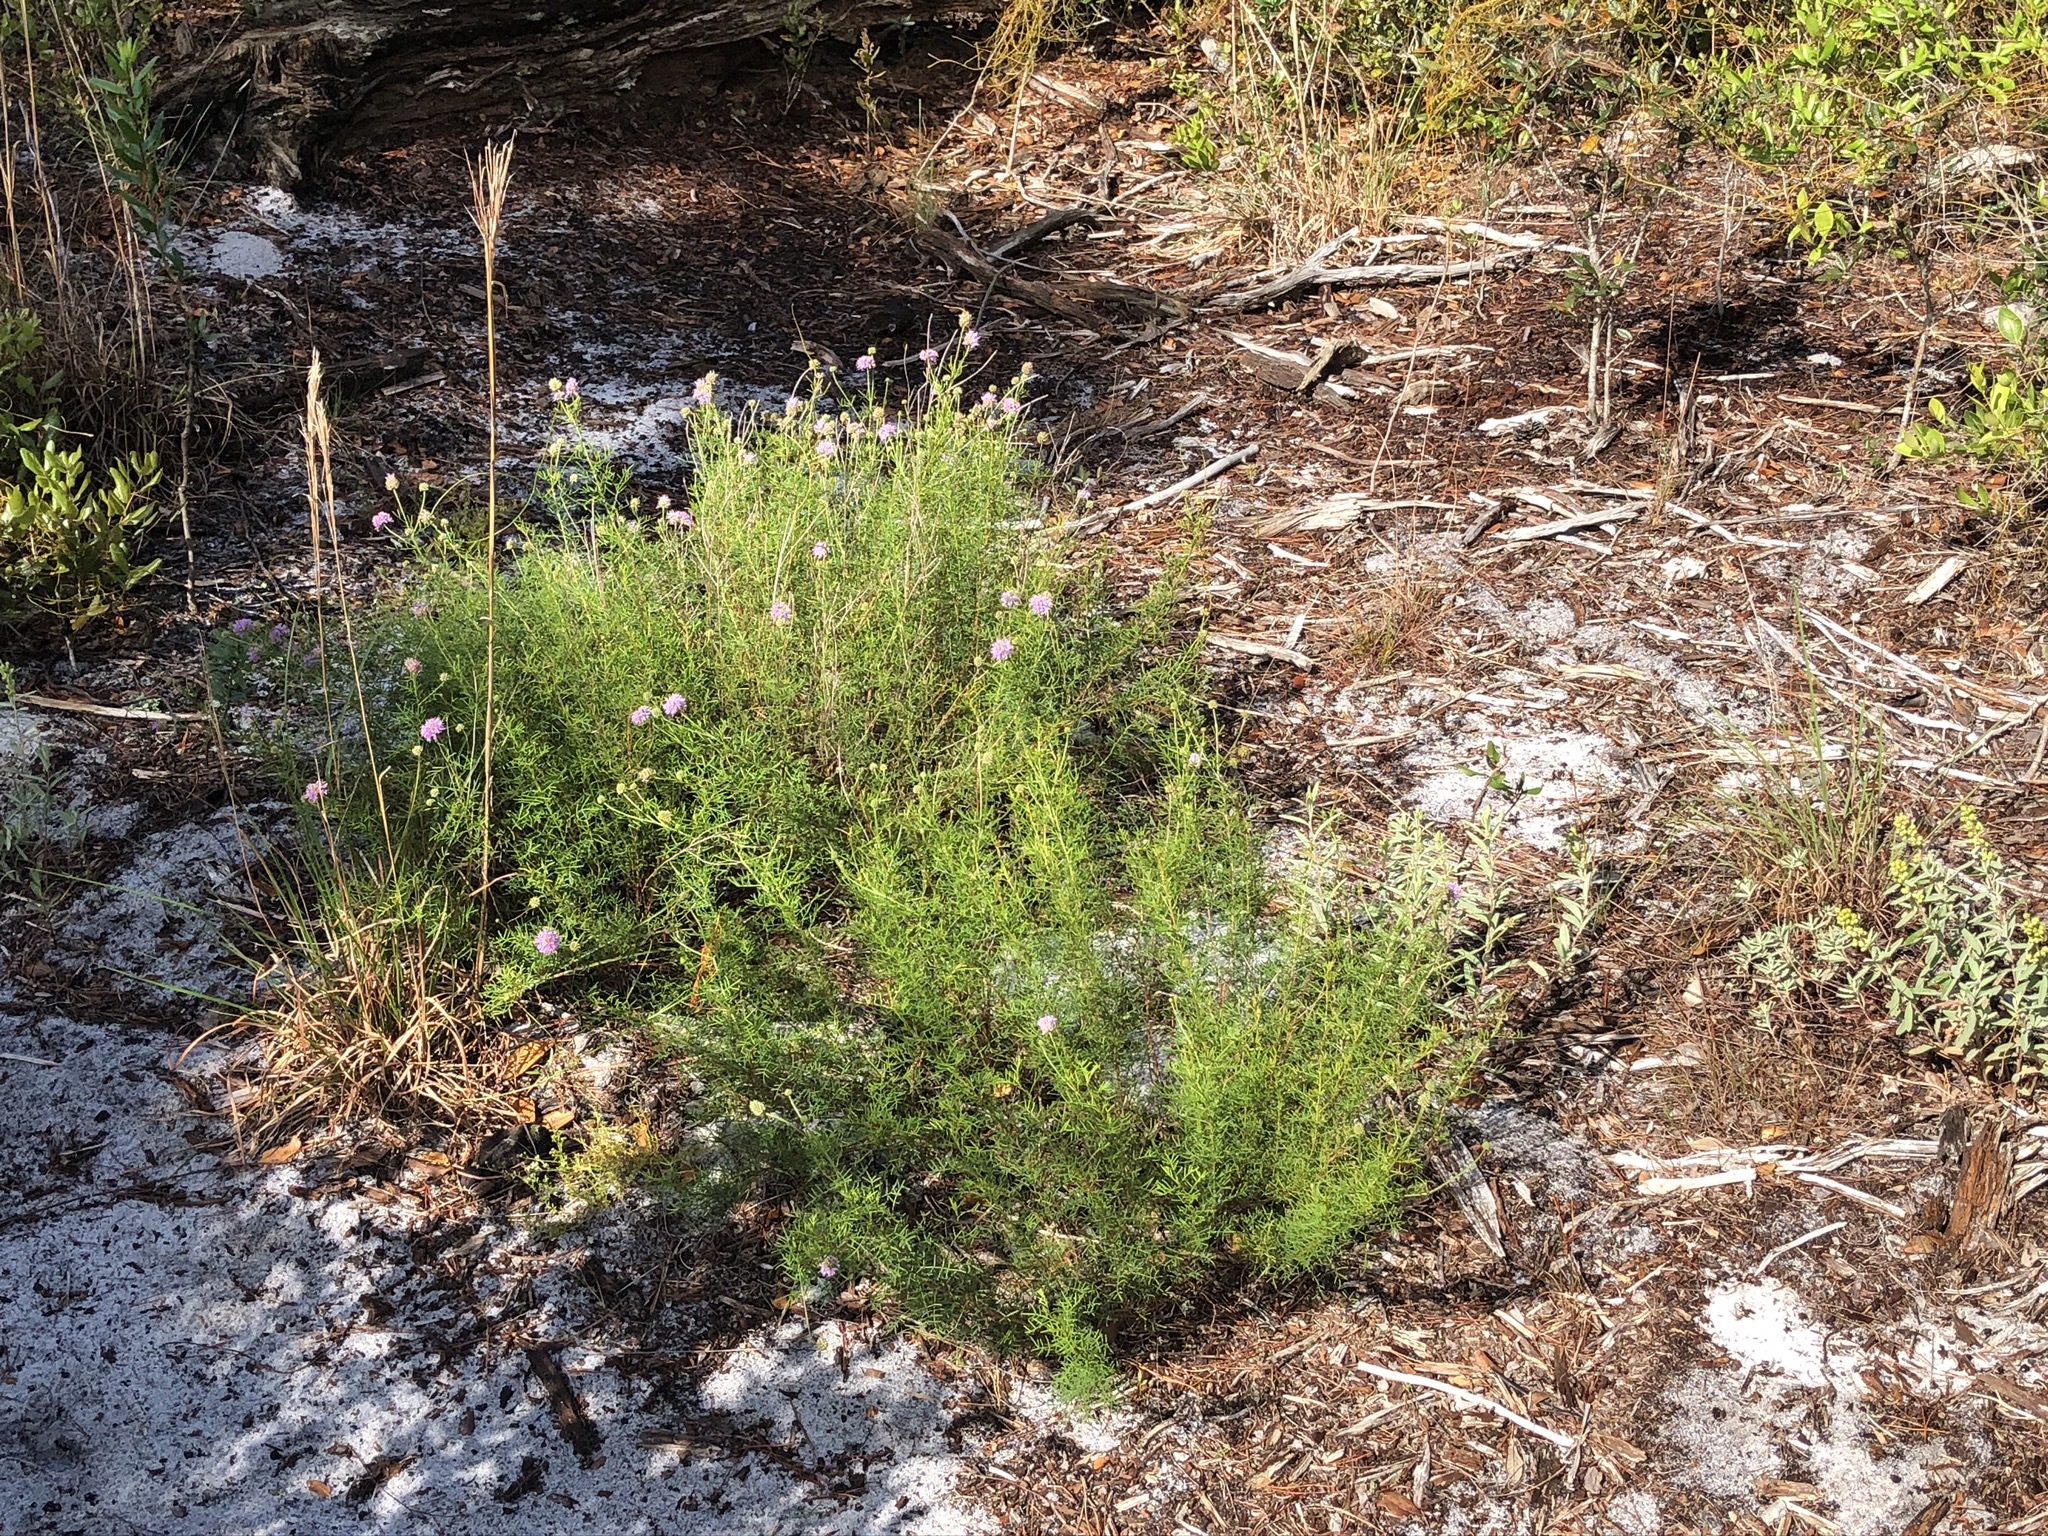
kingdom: Plantae
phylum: Tracheophyta
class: Magnoliopsida
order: Fabales
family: Fabaceae
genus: Dalea
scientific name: Dalea feayi
